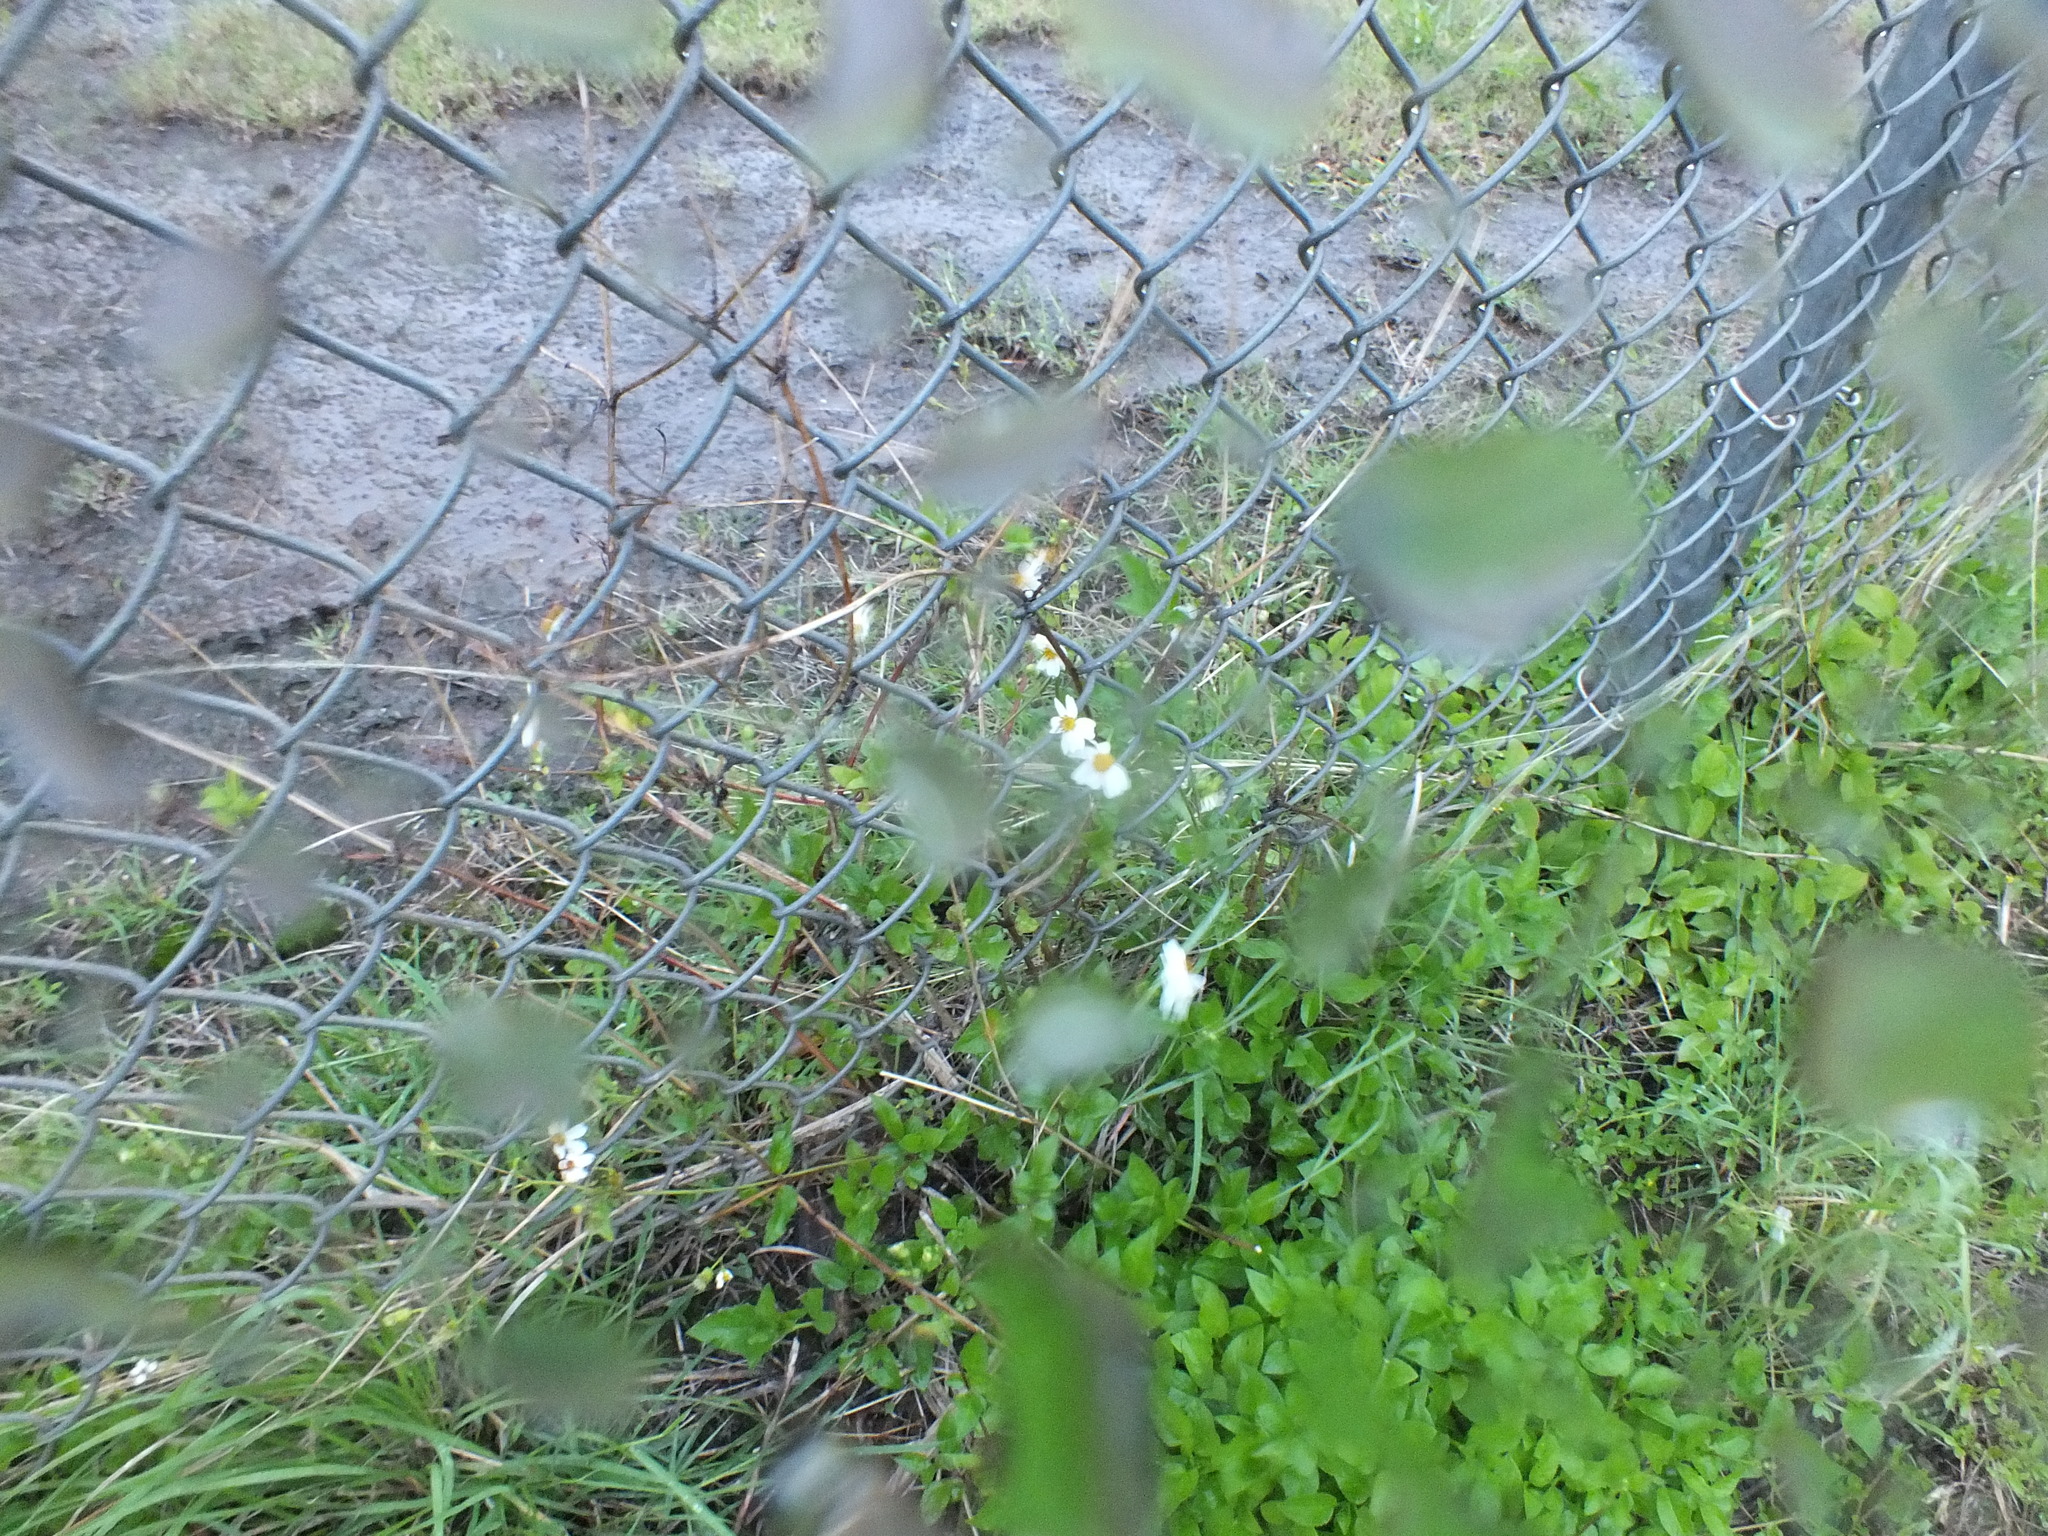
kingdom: Plantae
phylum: Tracheophyta
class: Magnoliopsida
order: Asterales
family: Asteraceae
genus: Bidens
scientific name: Bidens alba
